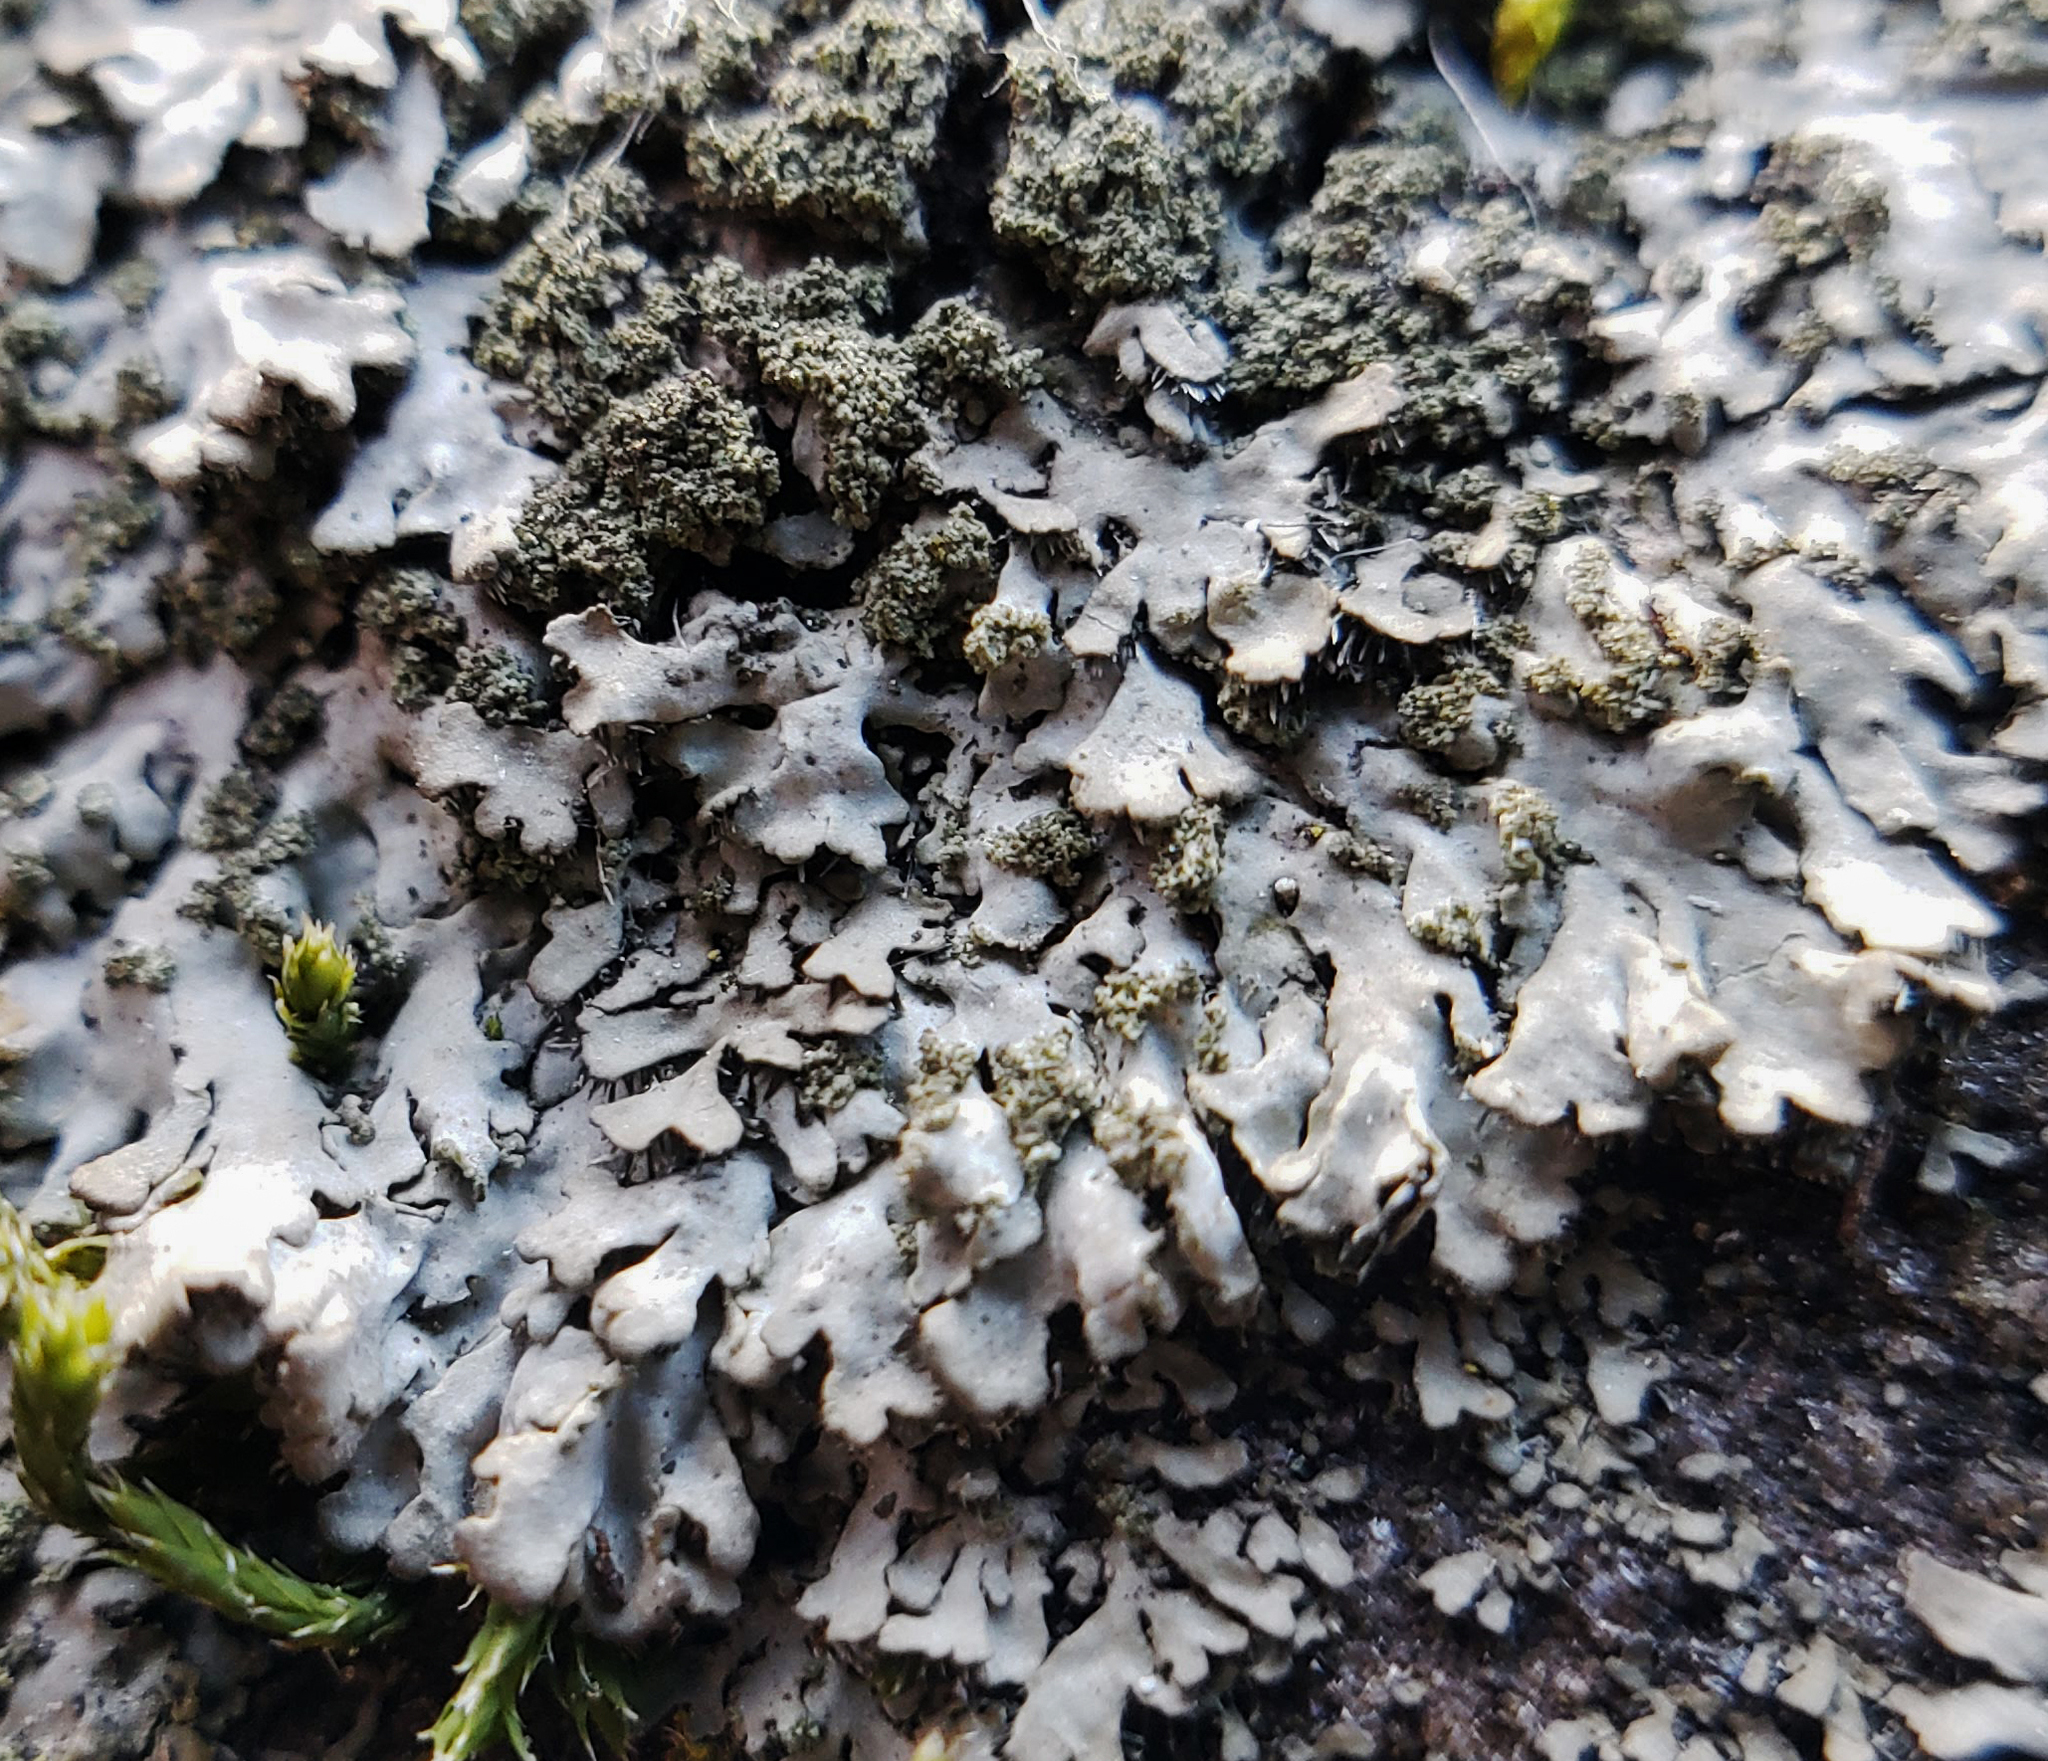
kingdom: Fungi
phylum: Ascomycota
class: Lecanoromycetes
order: Caliciales
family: Physciaceae
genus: Phaeophyscia
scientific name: Phaeophyscia adiastola
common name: Powder-tipped shadow lichen
